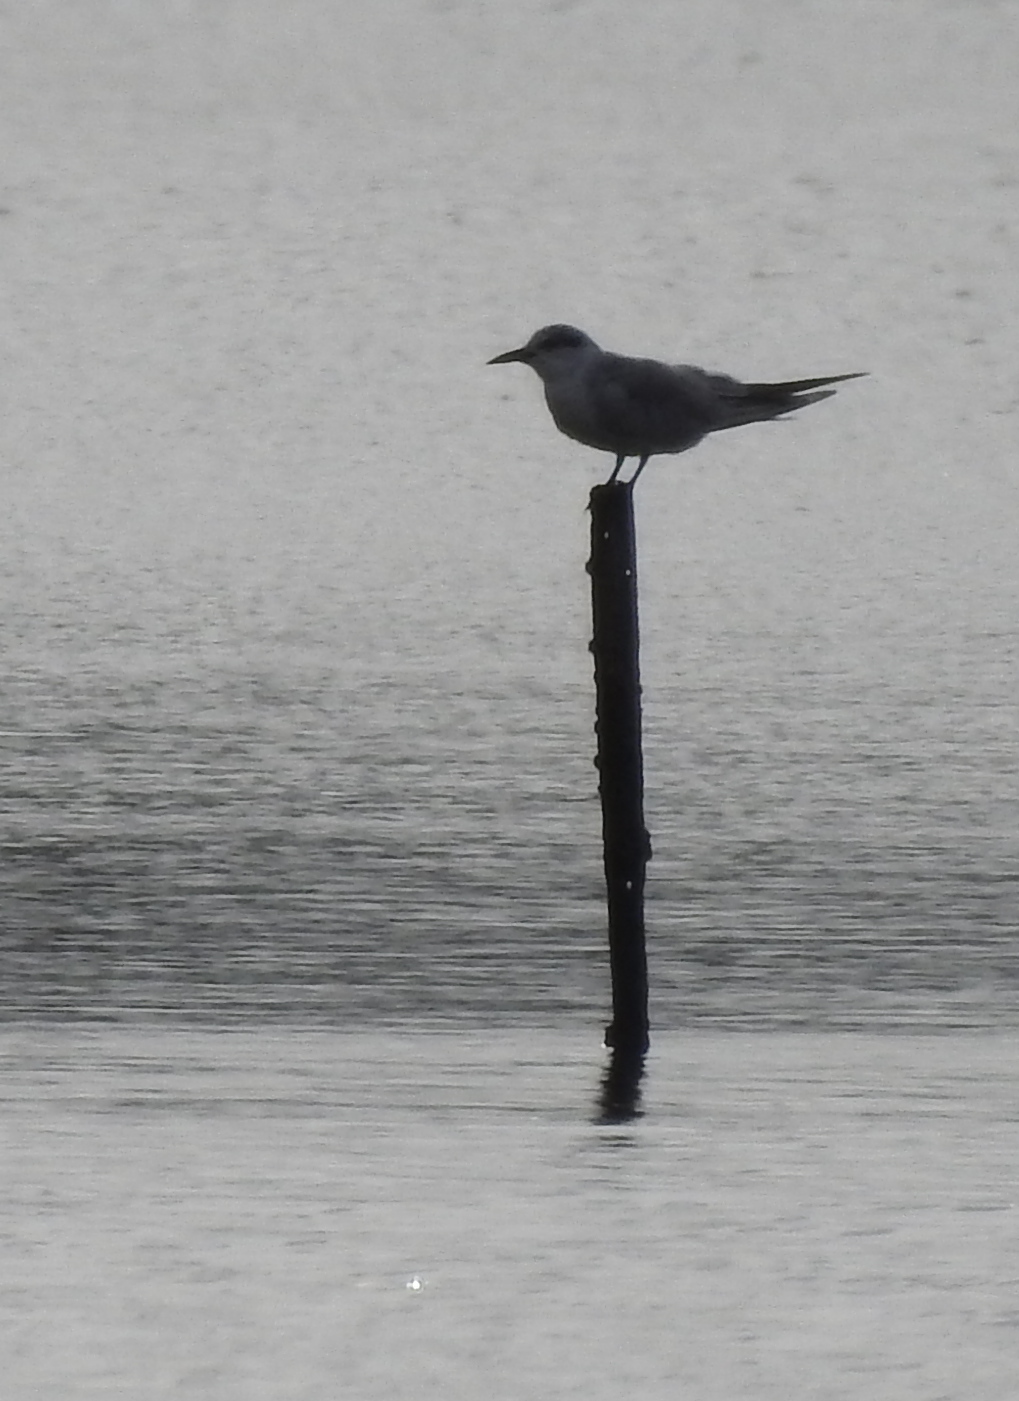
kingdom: Animalia
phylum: Chordata
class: Aves
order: Charadriiformes
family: Laridae
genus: Chlidonias
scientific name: Chlidonias hybrida
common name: Whiskered tern
